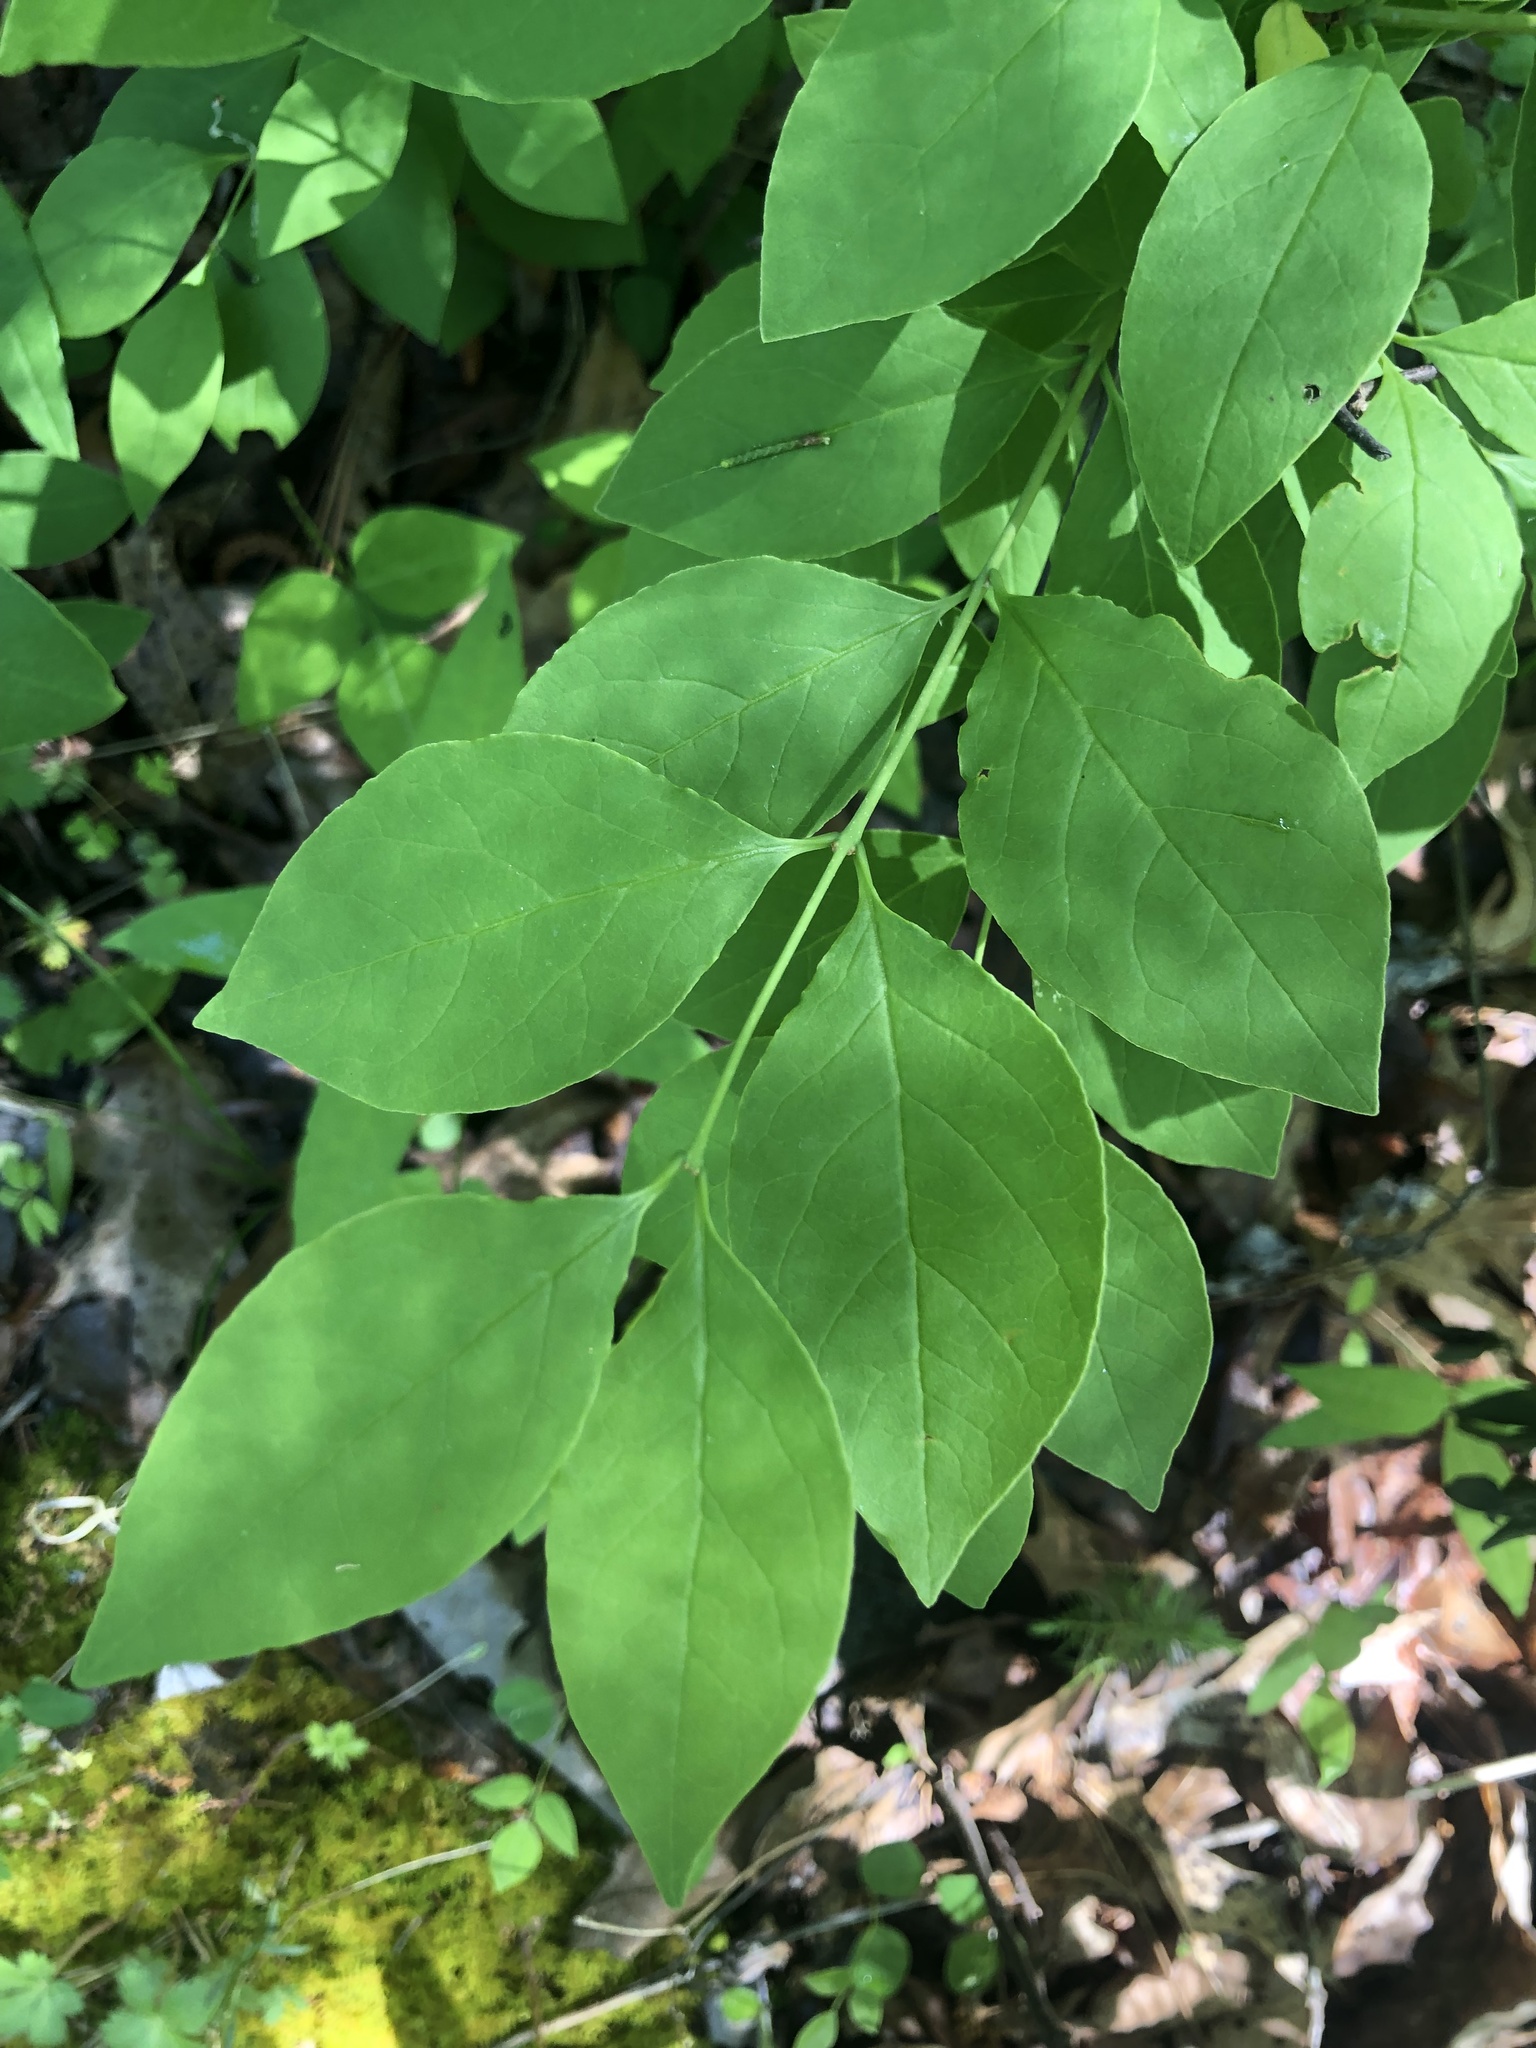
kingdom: Plantae
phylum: Tracheophyta
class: Magnoliopsida
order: Santalales
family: Santalaceae
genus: Nestronia
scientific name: Nestronia umbellula
